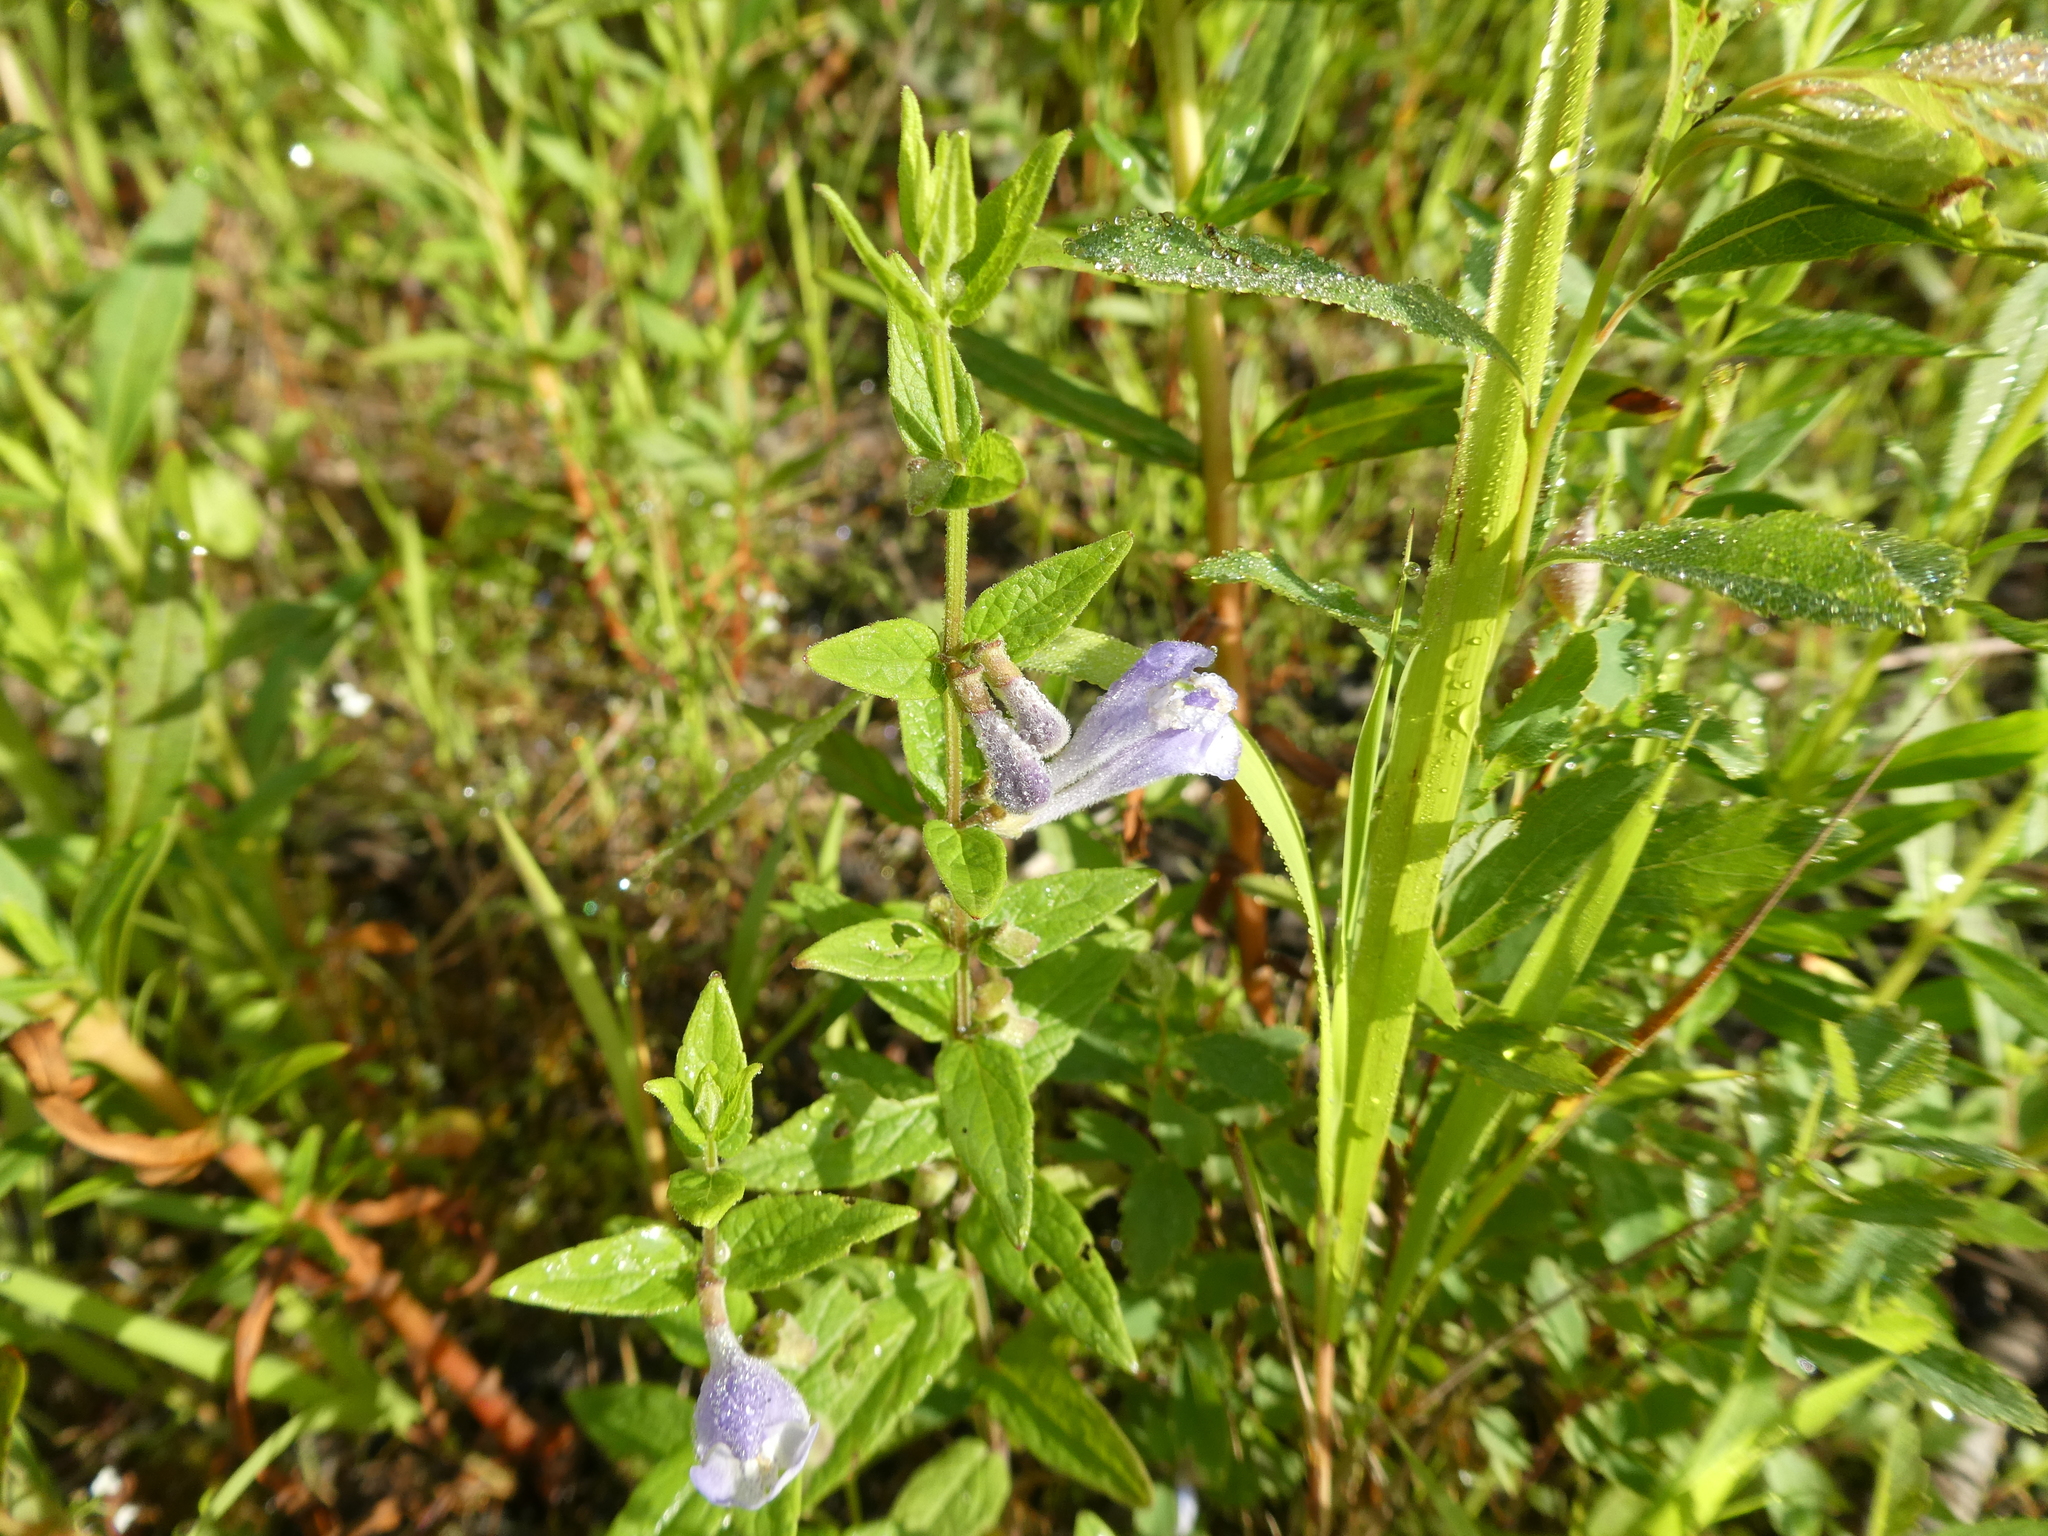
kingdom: Plantae
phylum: Tracheophyta
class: Magnoliopsida
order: Lamiales
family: Lamiaceae
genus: Scutellaria
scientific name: Scutellaria galericulata
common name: Skullcap
